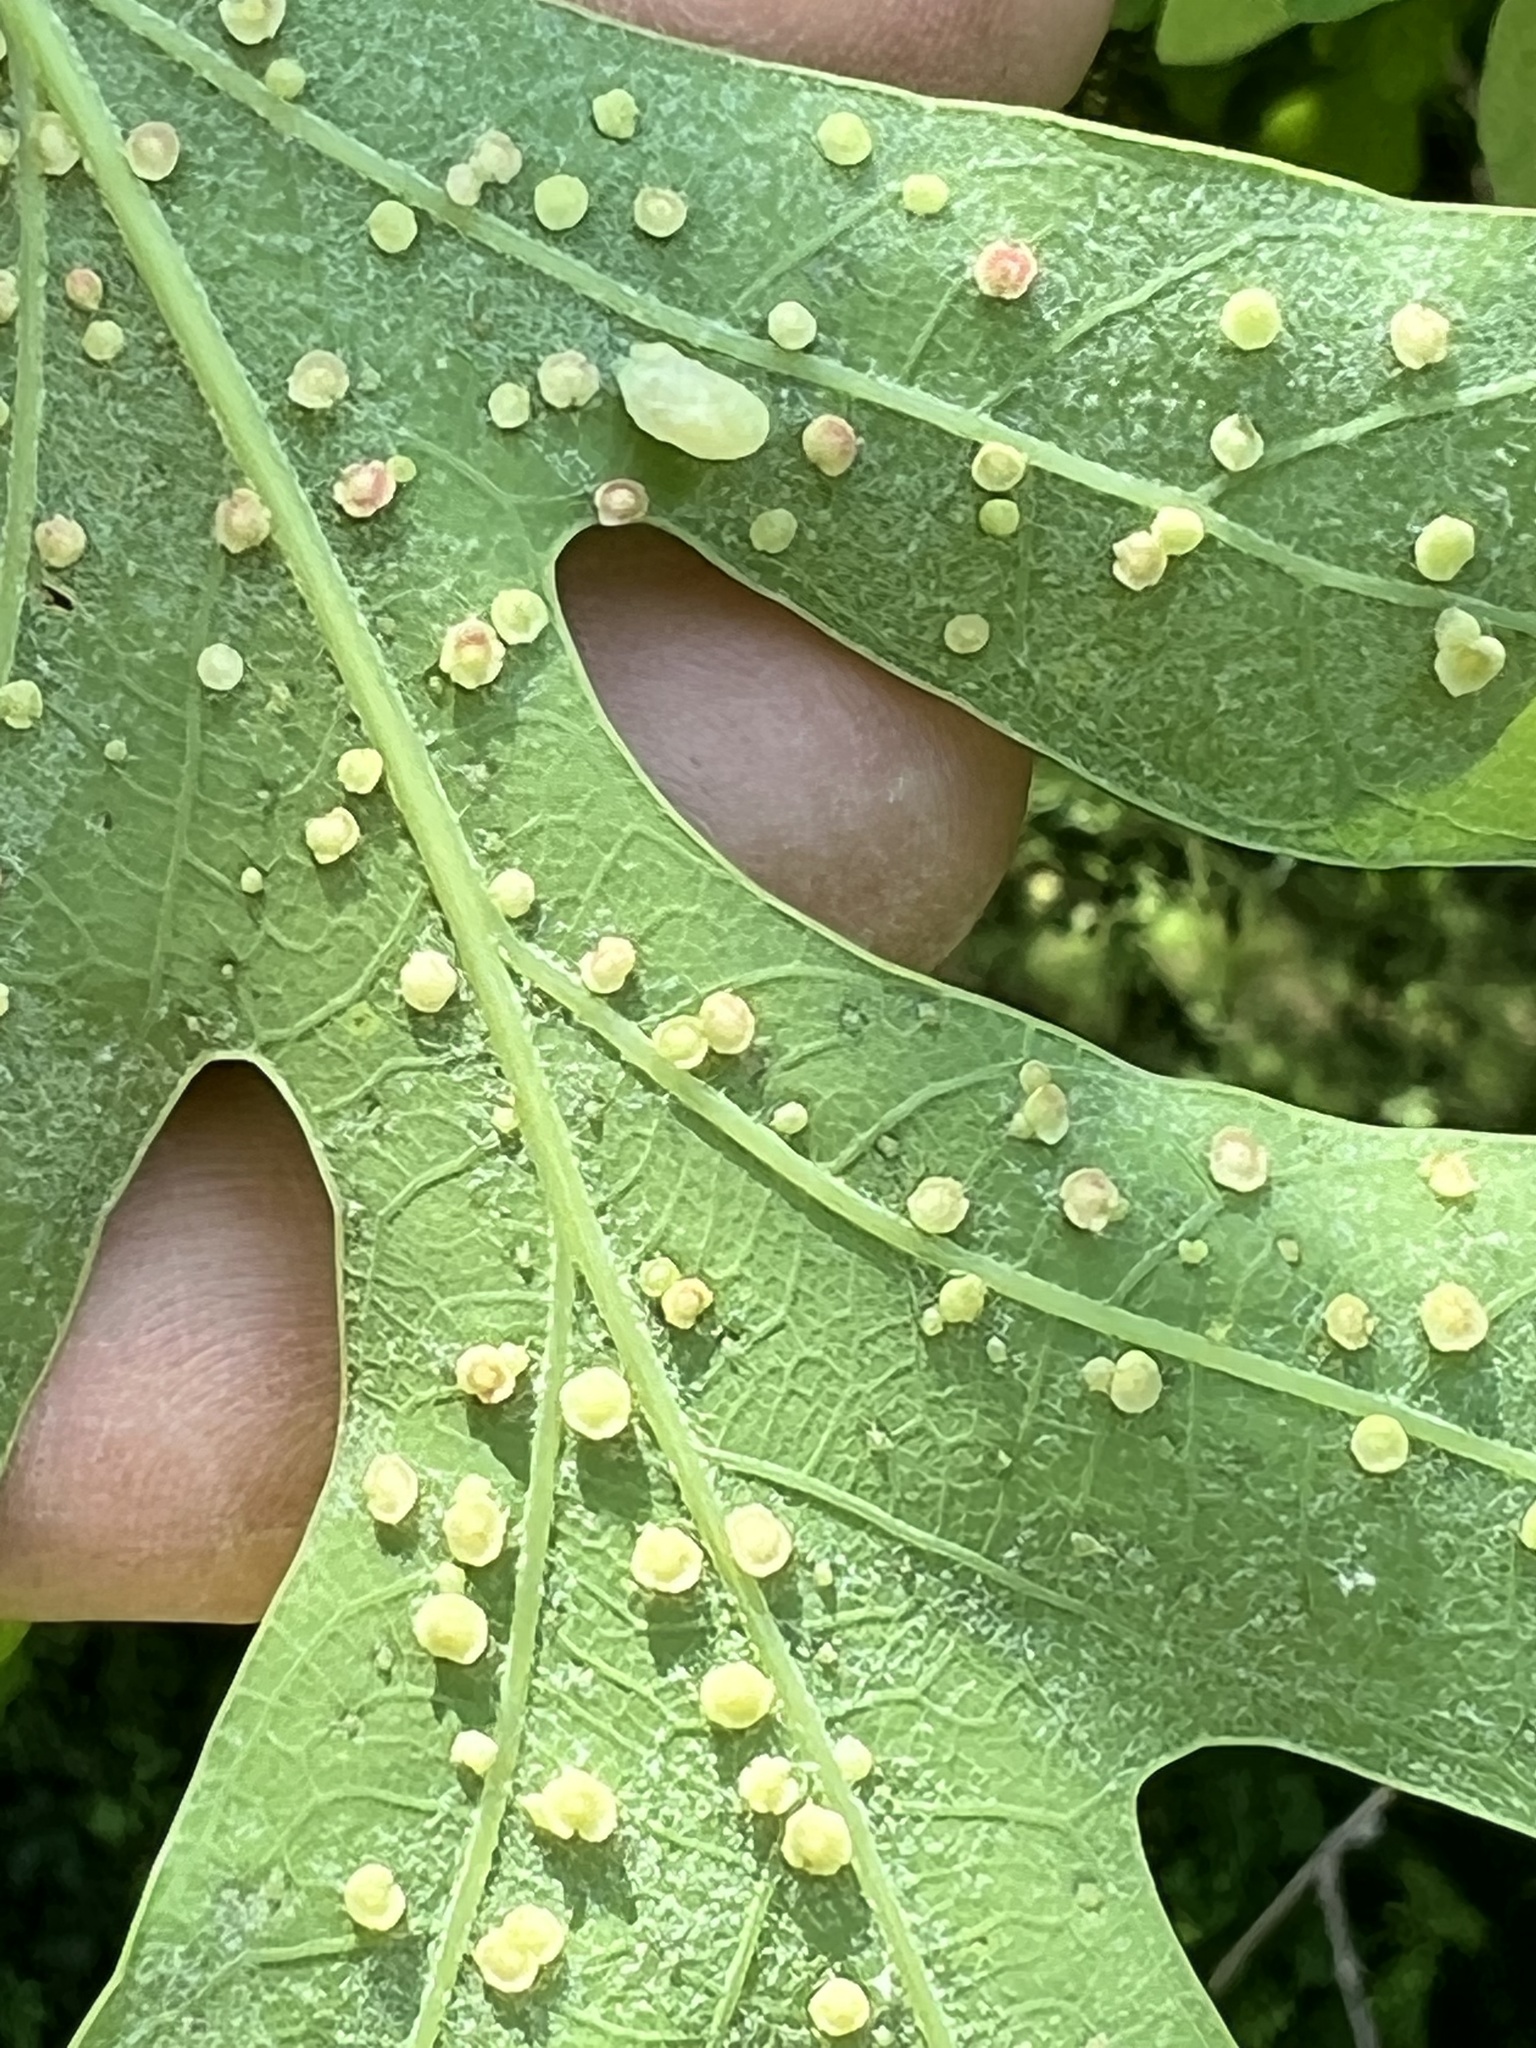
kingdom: Animalia
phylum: Arthropoda
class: Insecta
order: Hymenoptera
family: Cynipidae
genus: Neuroterus
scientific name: Neuroterus
